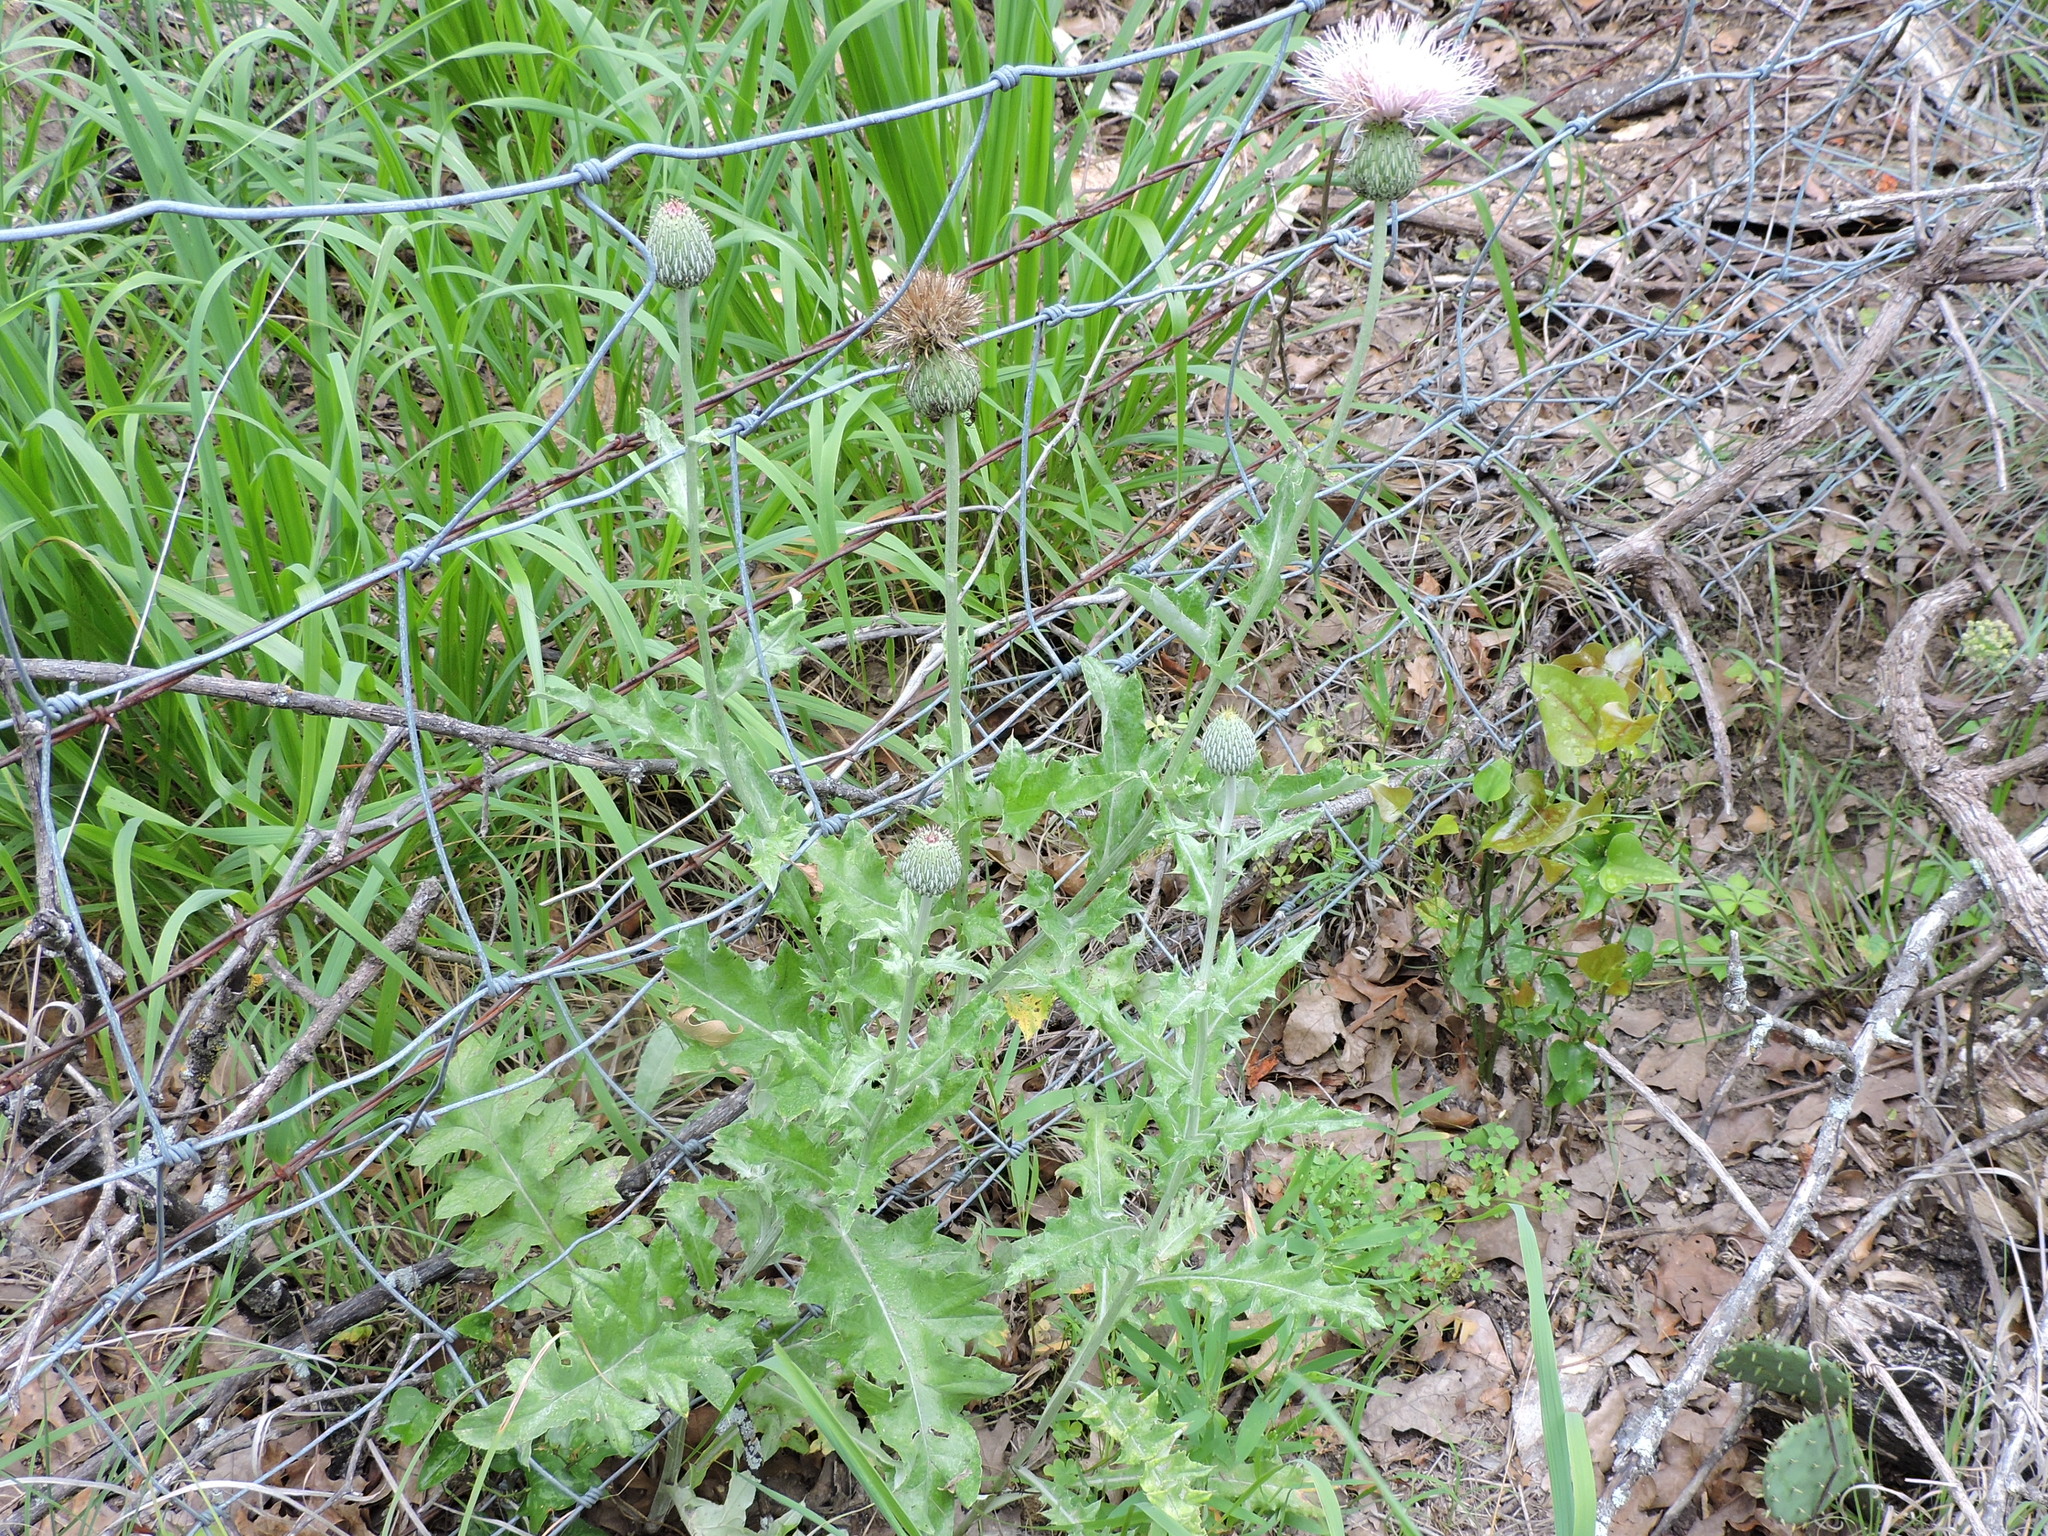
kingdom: Plantae
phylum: Tracheophyta
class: Magnoliopsida
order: Asterales
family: Asteraceae
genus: Cirsium
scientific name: Cirsium undulatum
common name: Pasture thistle
